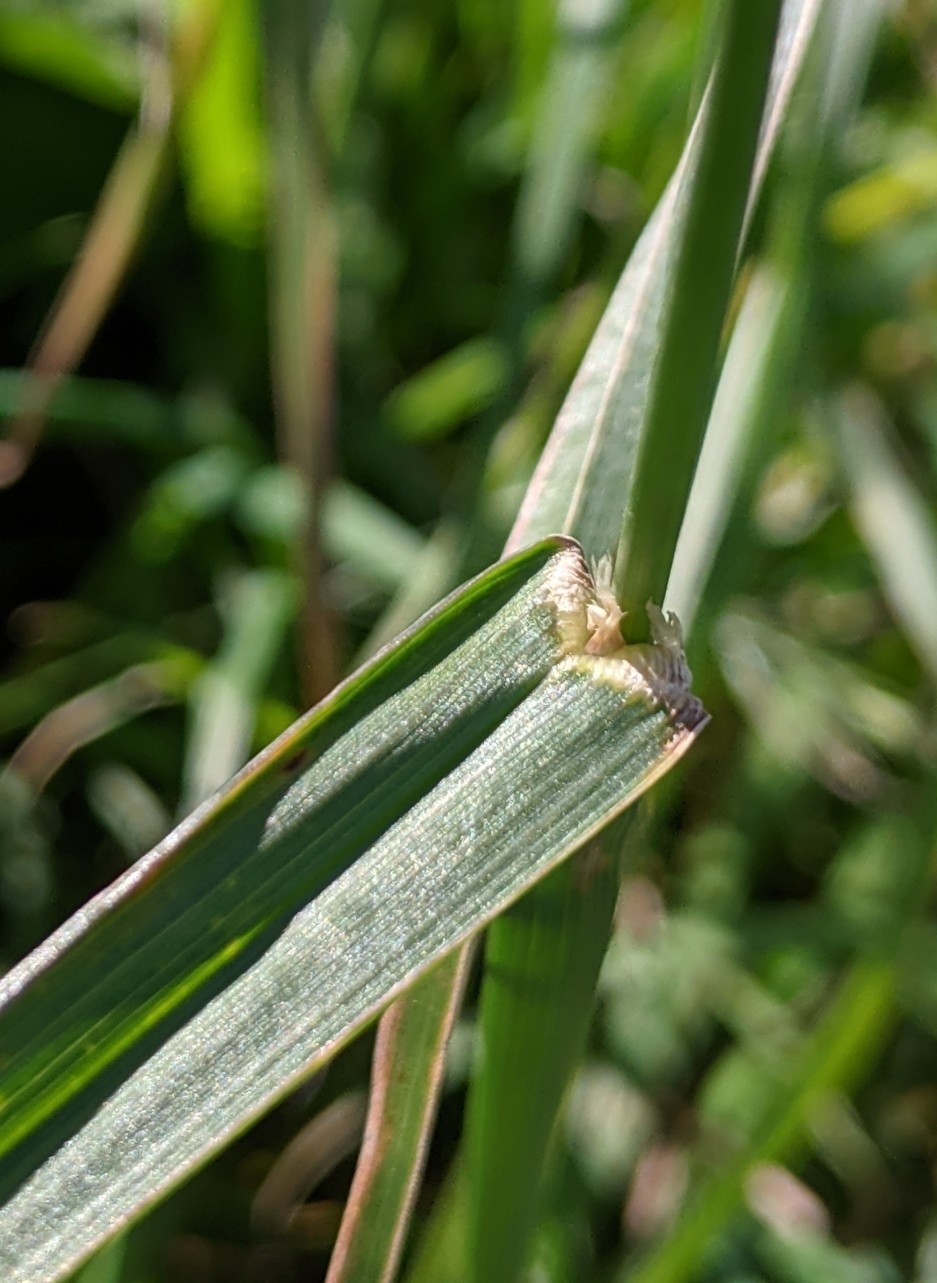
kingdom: Plantae
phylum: Tracheophyta
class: Liliopsida
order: Poales
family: Poaceae
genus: Dactylis
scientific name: Dactylis glomerata
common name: Orchardgrass
